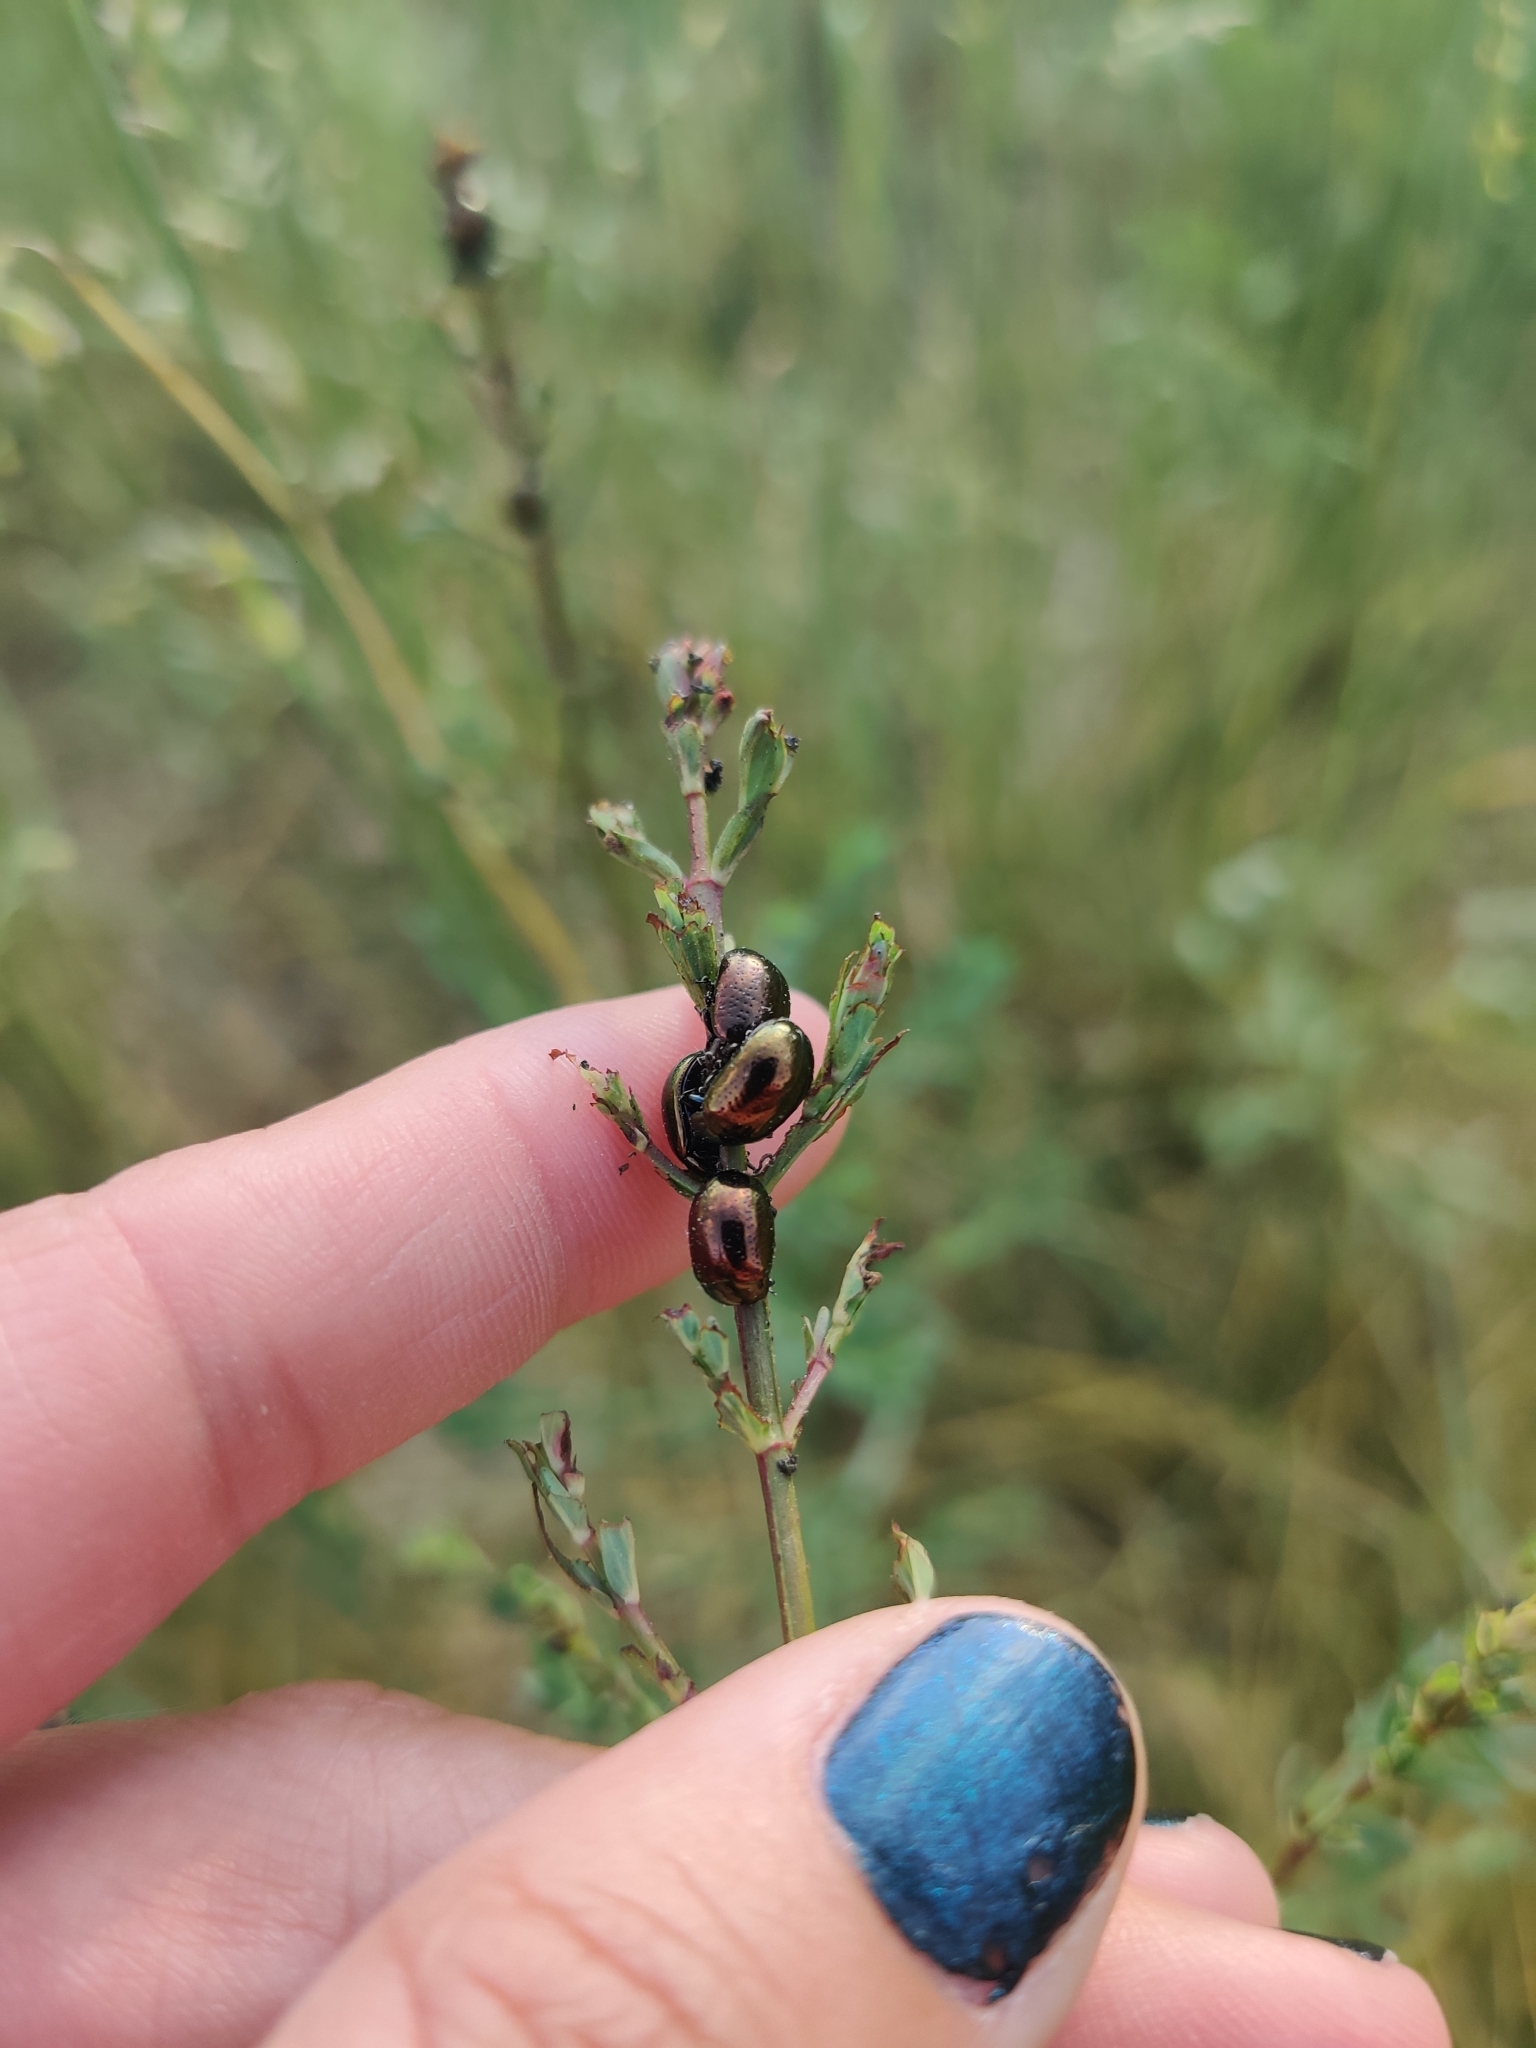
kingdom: Animalia
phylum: Arthropoda
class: Insecta
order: Coleoptera
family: Chrysomelidae
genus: Chrysolina
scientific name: Chrysolina hyperici
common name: St. johnswort beetle
